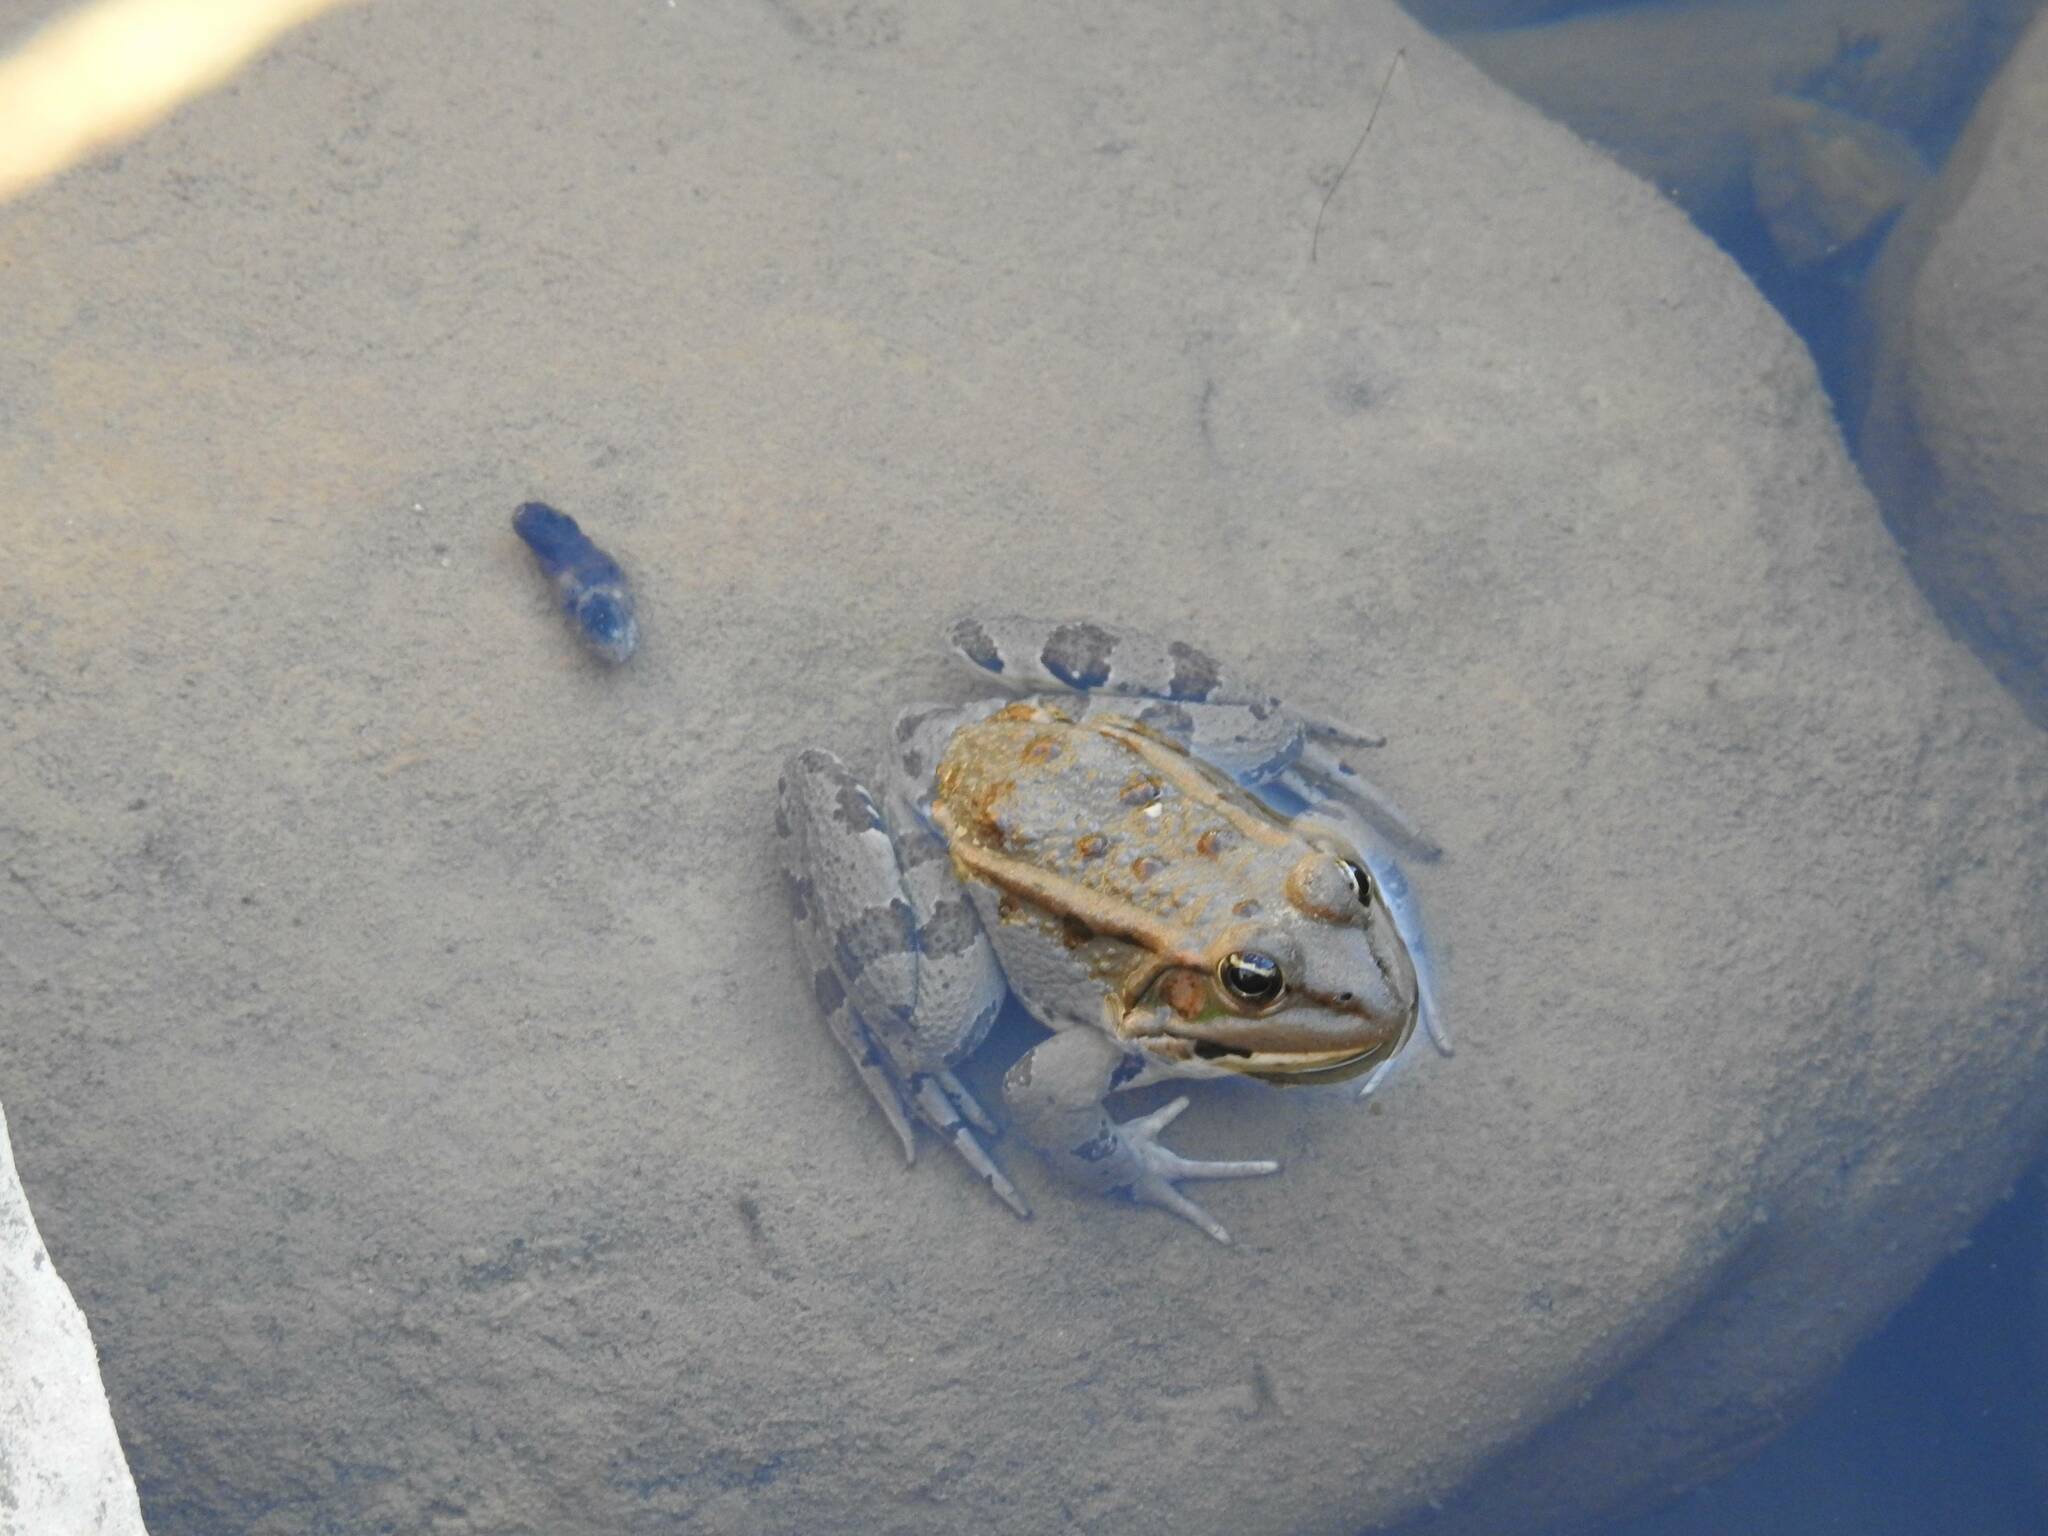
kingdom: Animalia
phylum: Chordata
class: Amphibia
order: Anura
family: Ranidae
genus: Pelophylax
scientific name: Pelophylax saharicus
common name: Sahara frog
